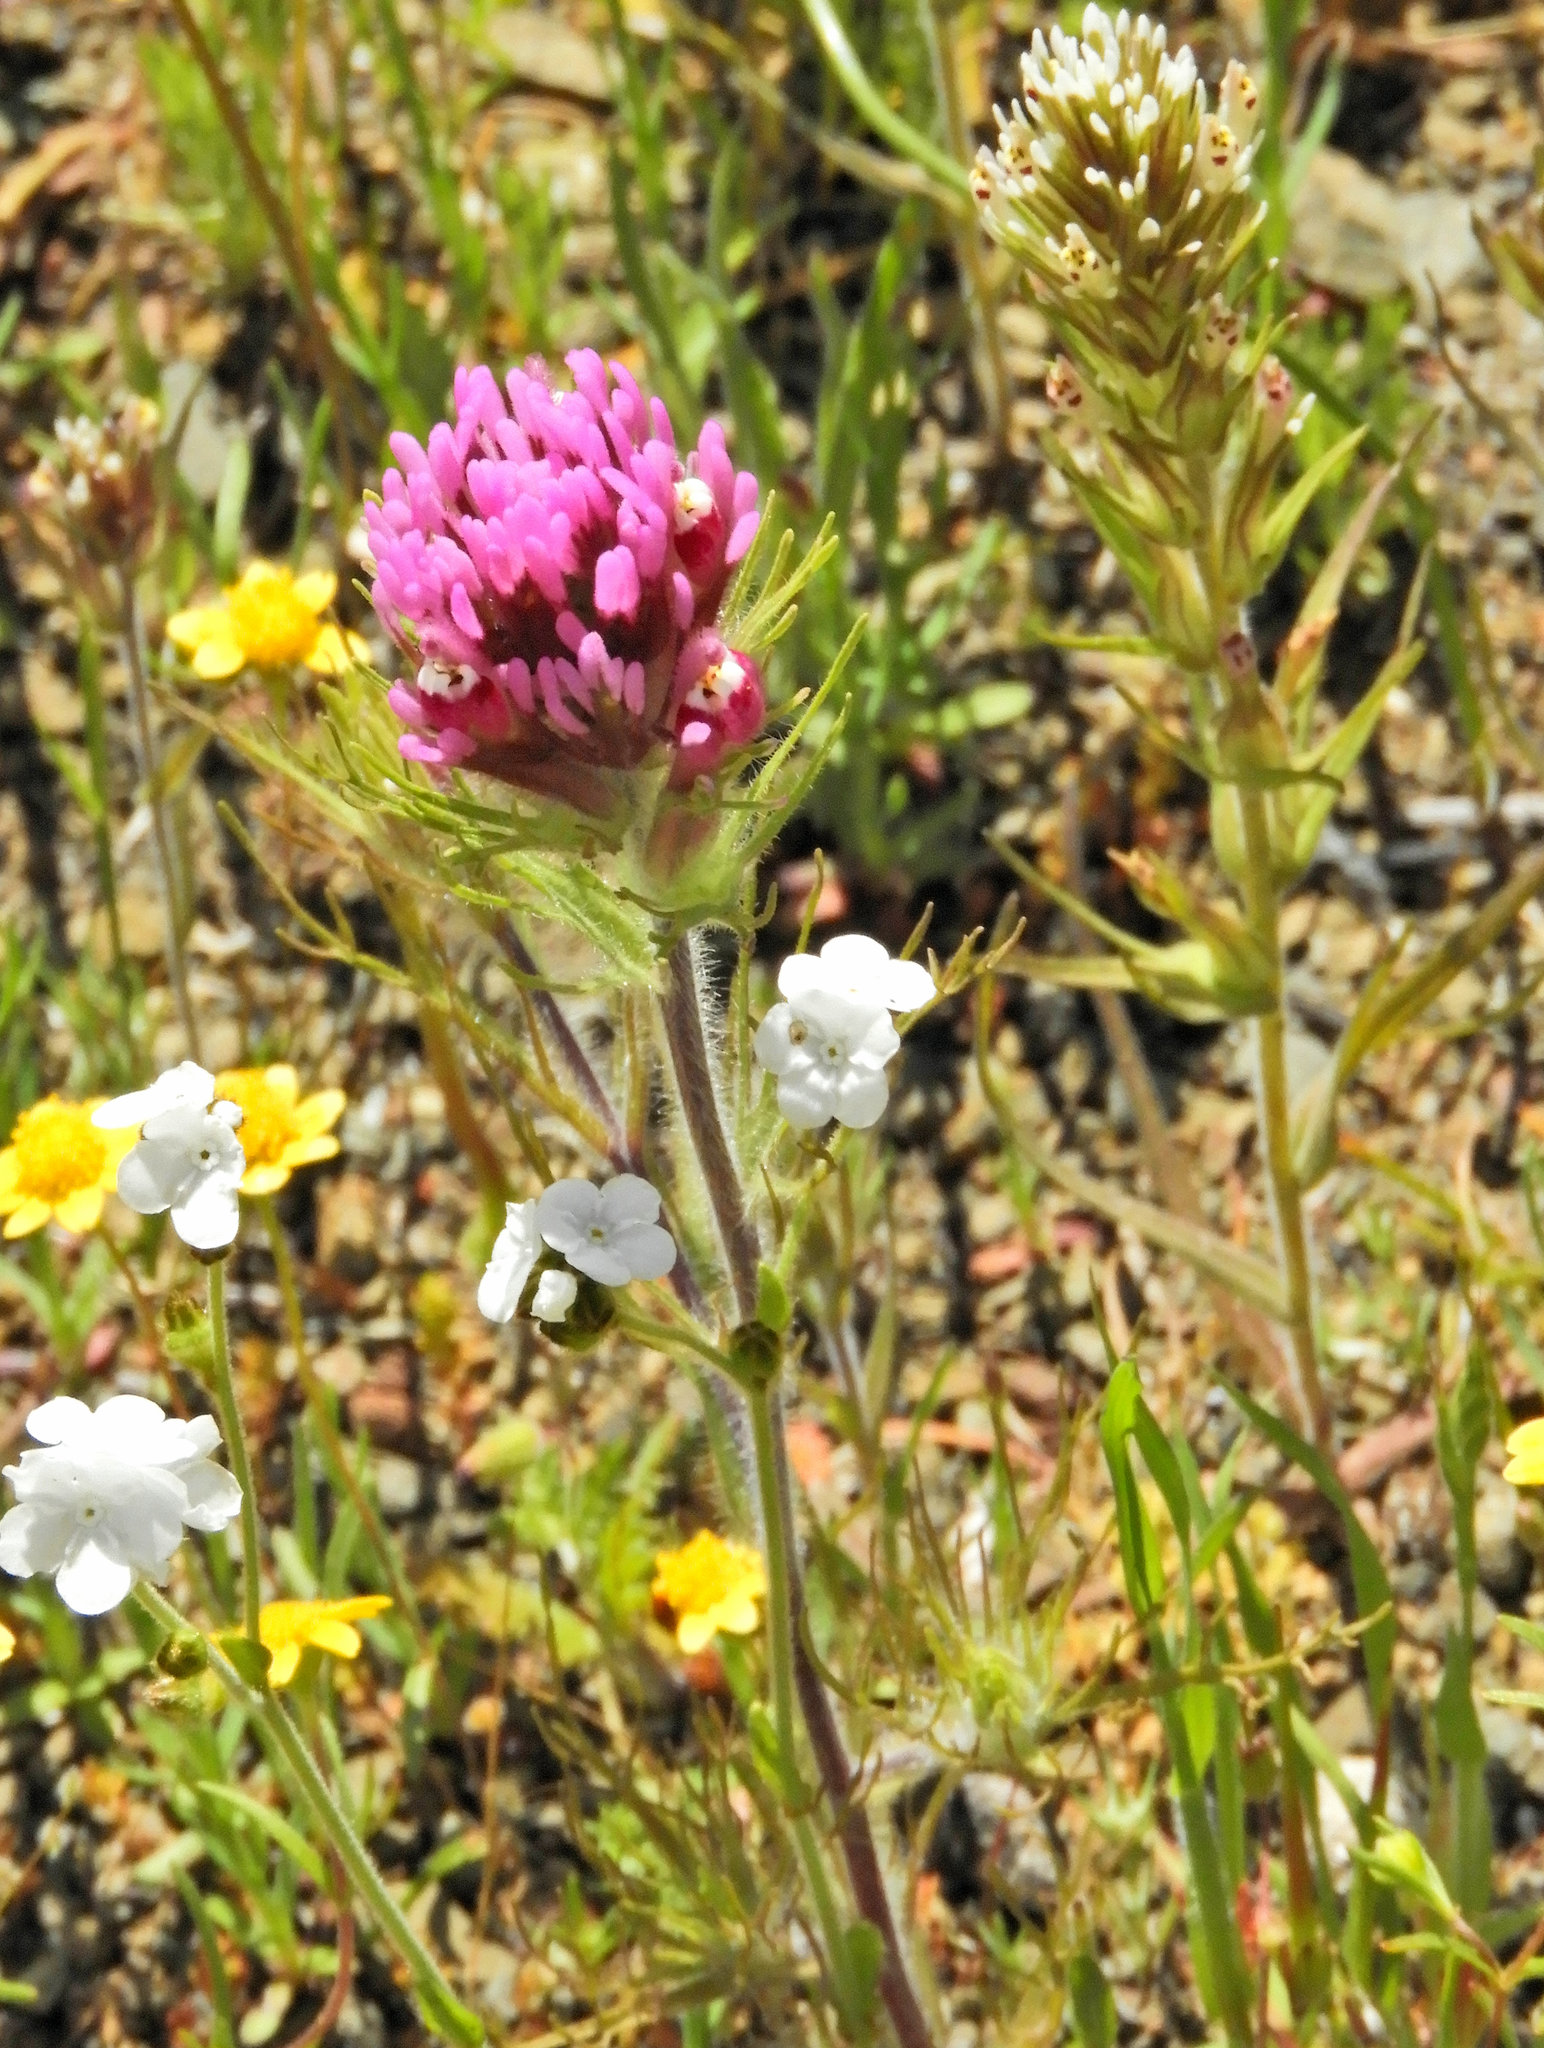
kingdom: Plantae
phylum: Tracheophyta
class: Magnoliopsida
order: Lamiales
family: Orobanchaceae
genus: Castilleja
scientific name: Castilleja exserta
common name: Purple owl-clover
